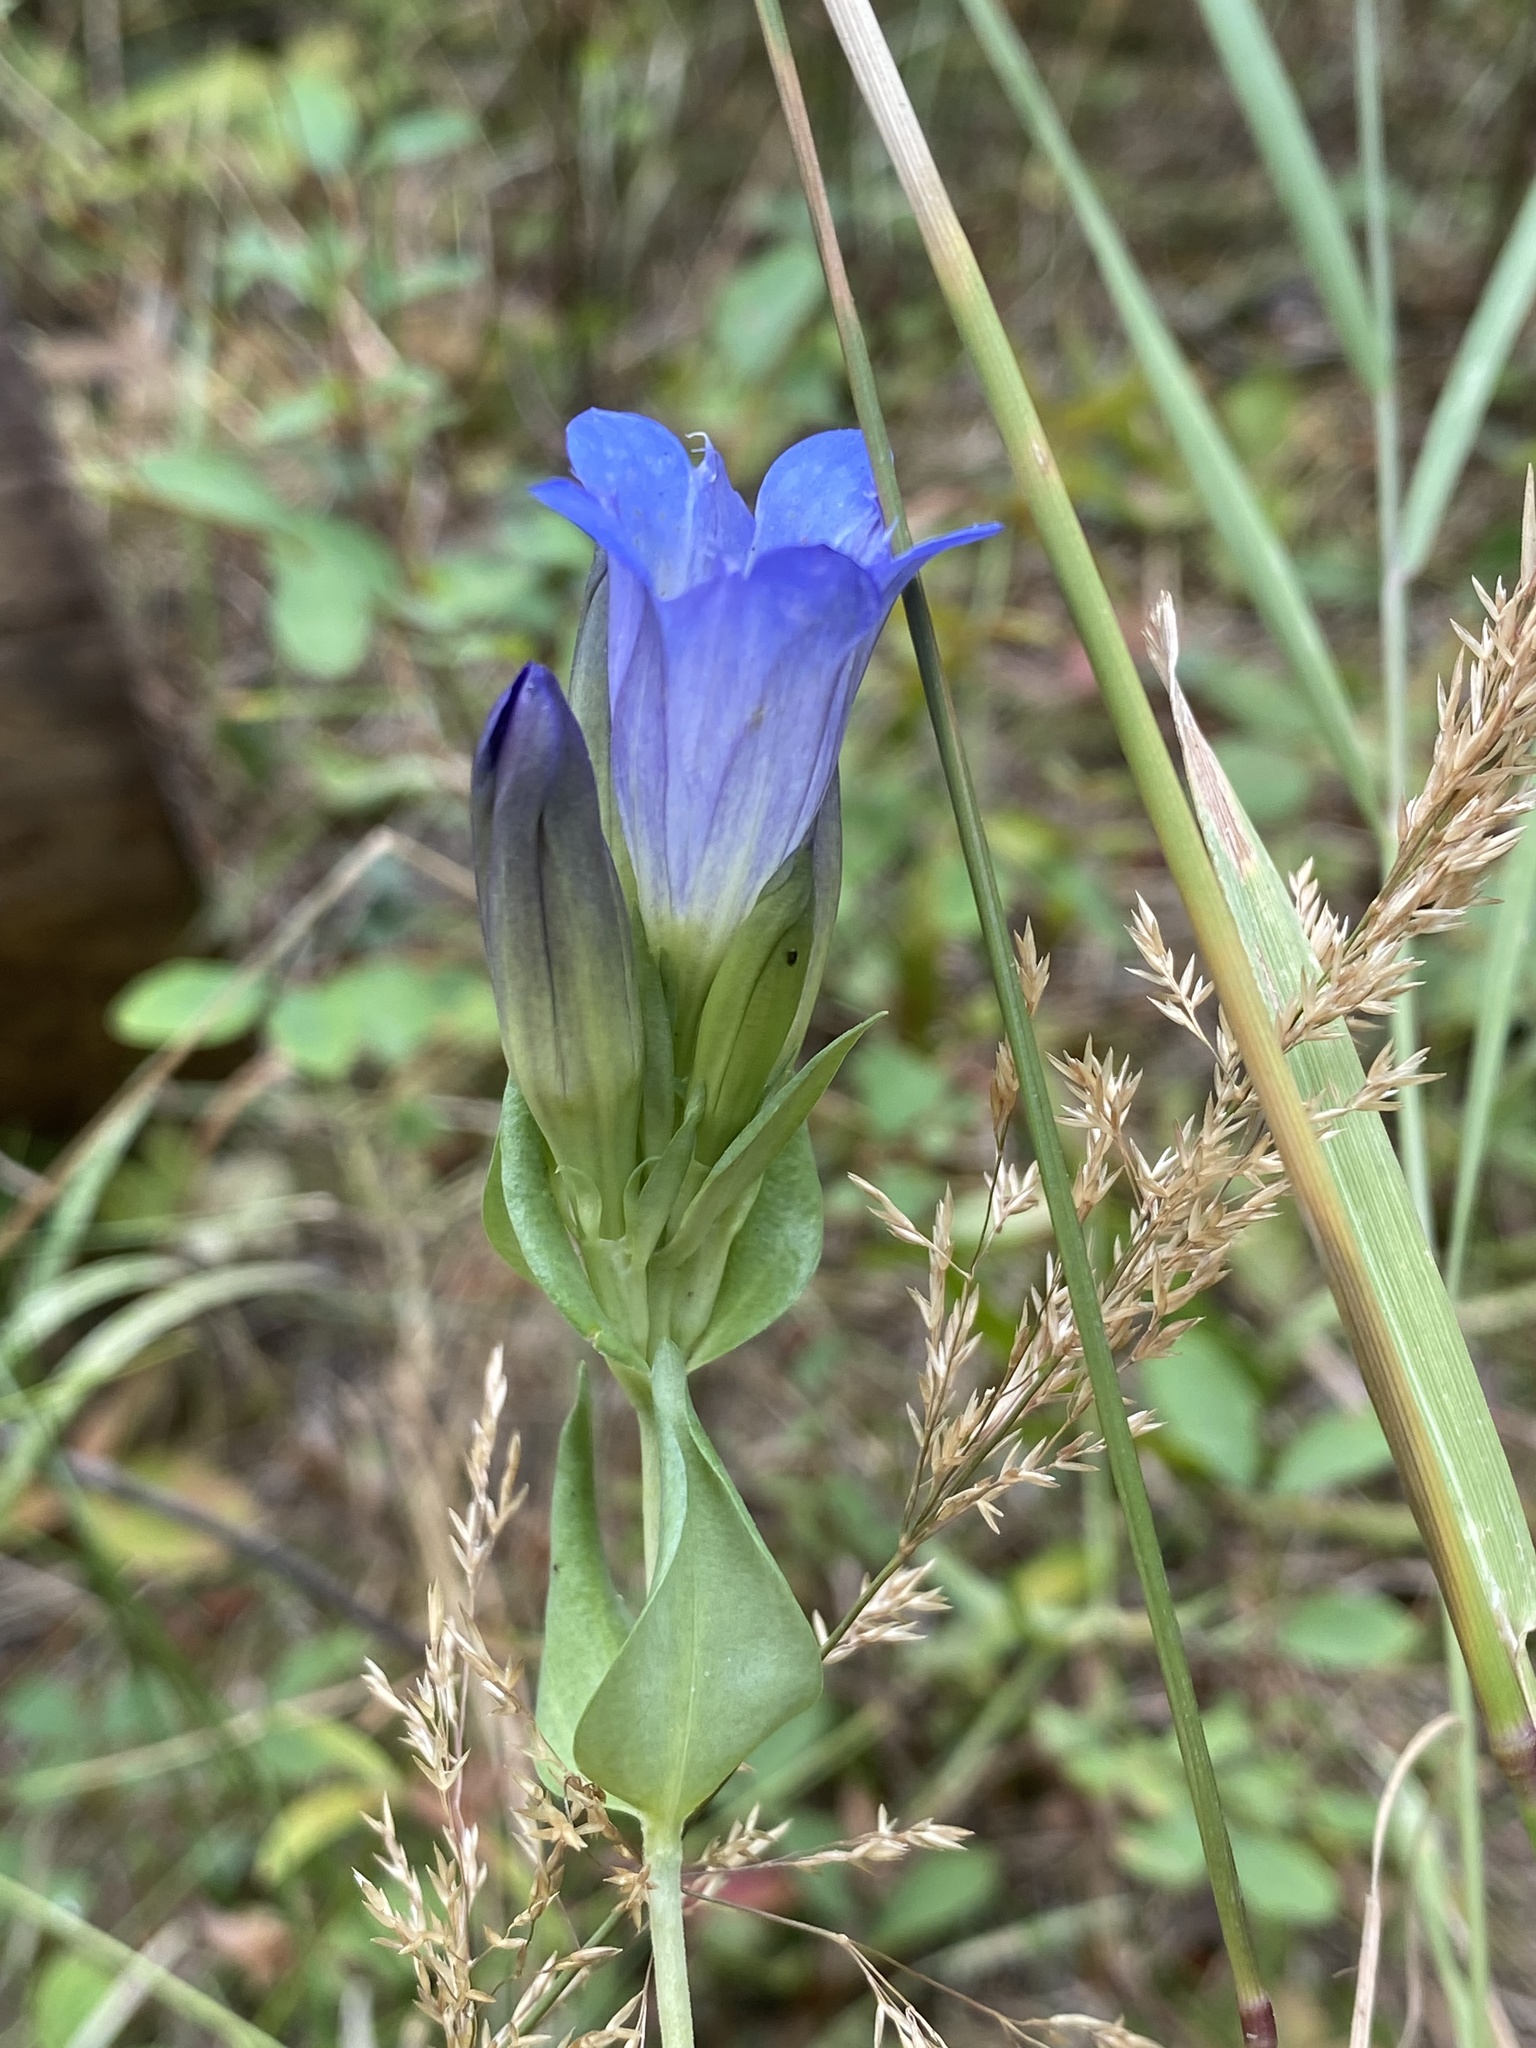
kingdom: Plantae
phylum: Tracheophyta
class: Magnoliopsida
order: Gentianales
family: Gentianaceae
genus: Gentiana
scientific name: Gentiana affinis
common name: Rocky mountain gentian
